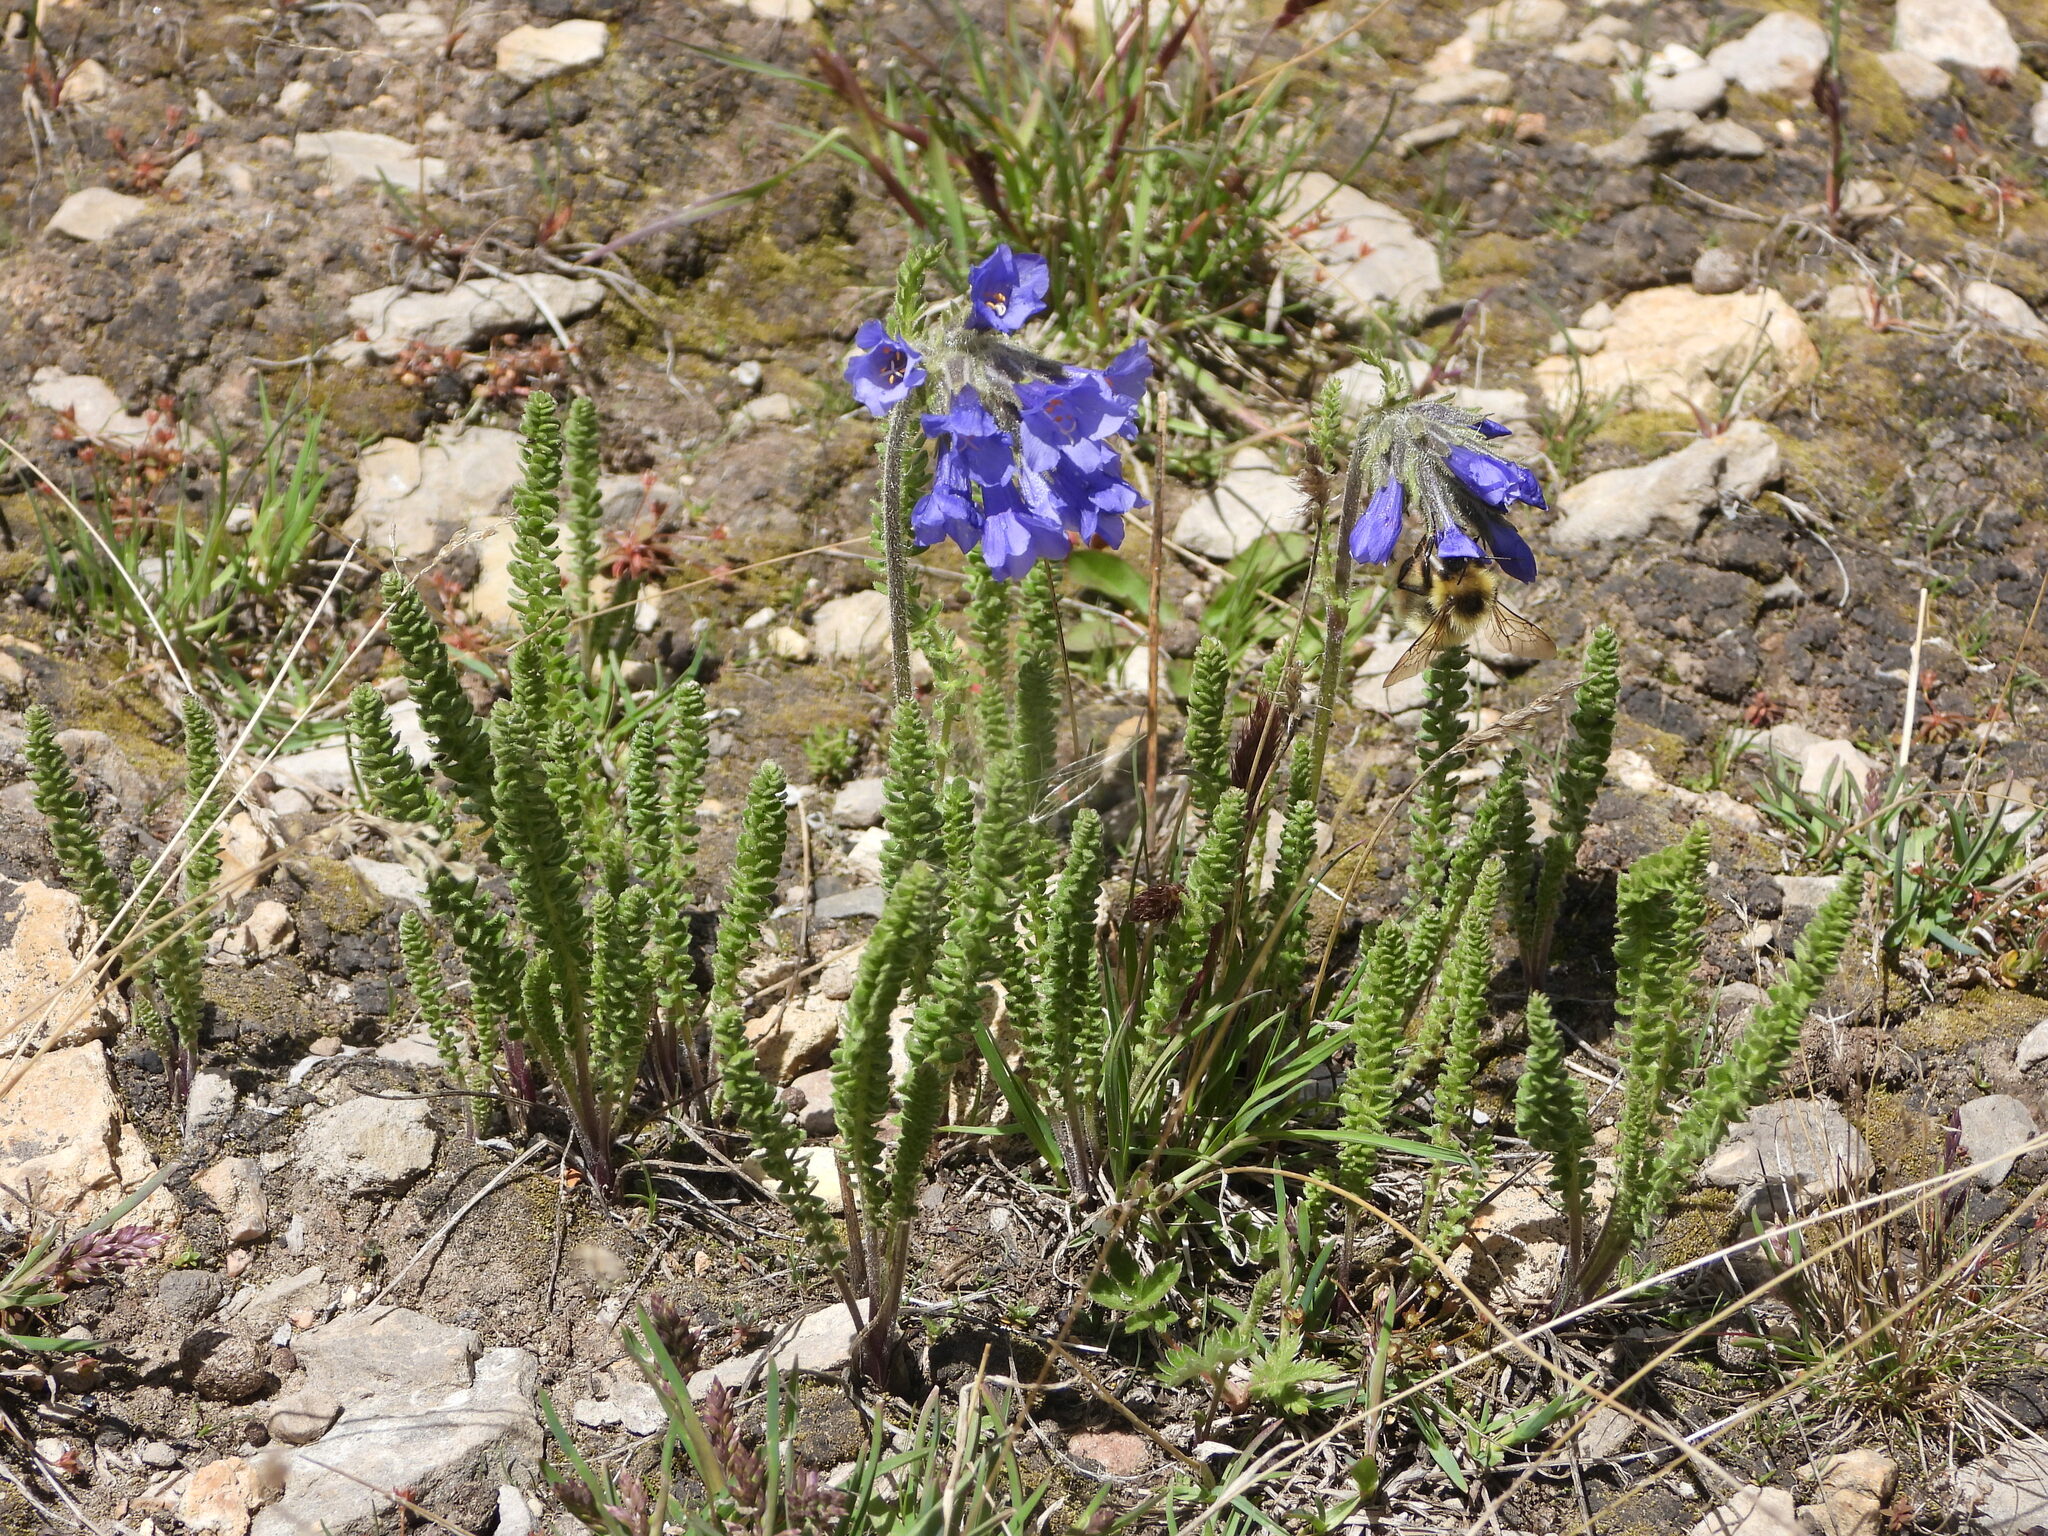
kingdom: Plantae
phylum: Tracheophyta
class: Magnoliopsida
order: Ericales
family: Polemoniaceae
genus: Polemonium
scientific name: Polemonium viscosum
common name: Skunk jacob's-ladder
